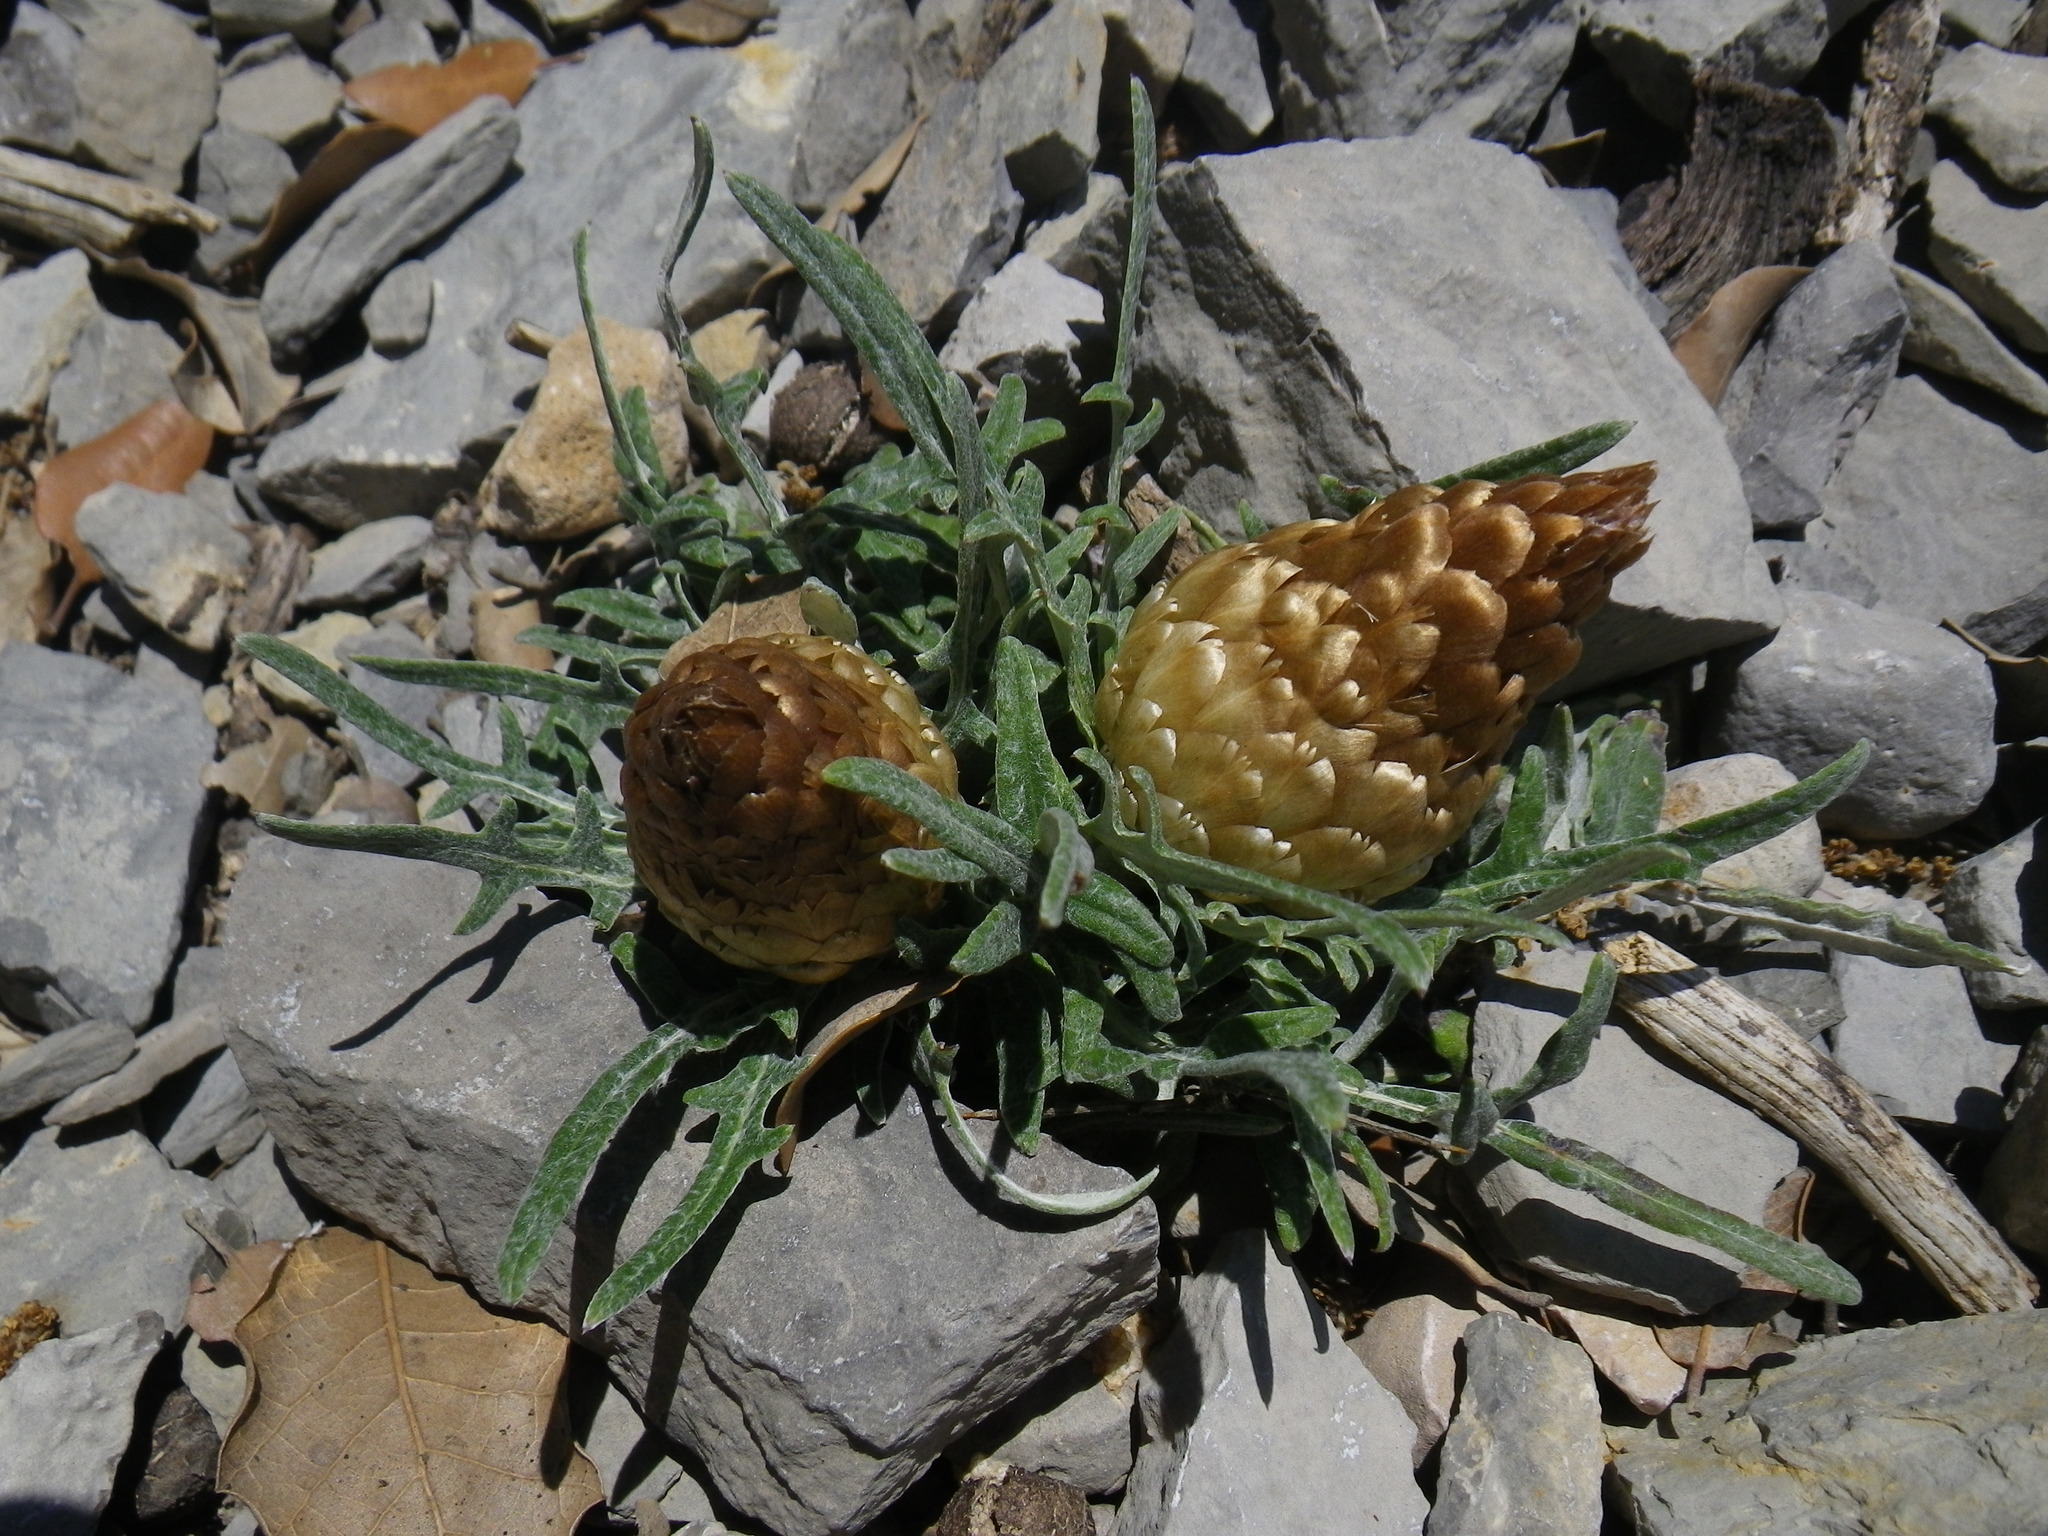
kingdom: Plantae
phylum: Tracheophyta
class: Magnoliopsida
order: Asterales
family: Asteraceae
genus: Leuzea
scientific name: Leuzea conifera
